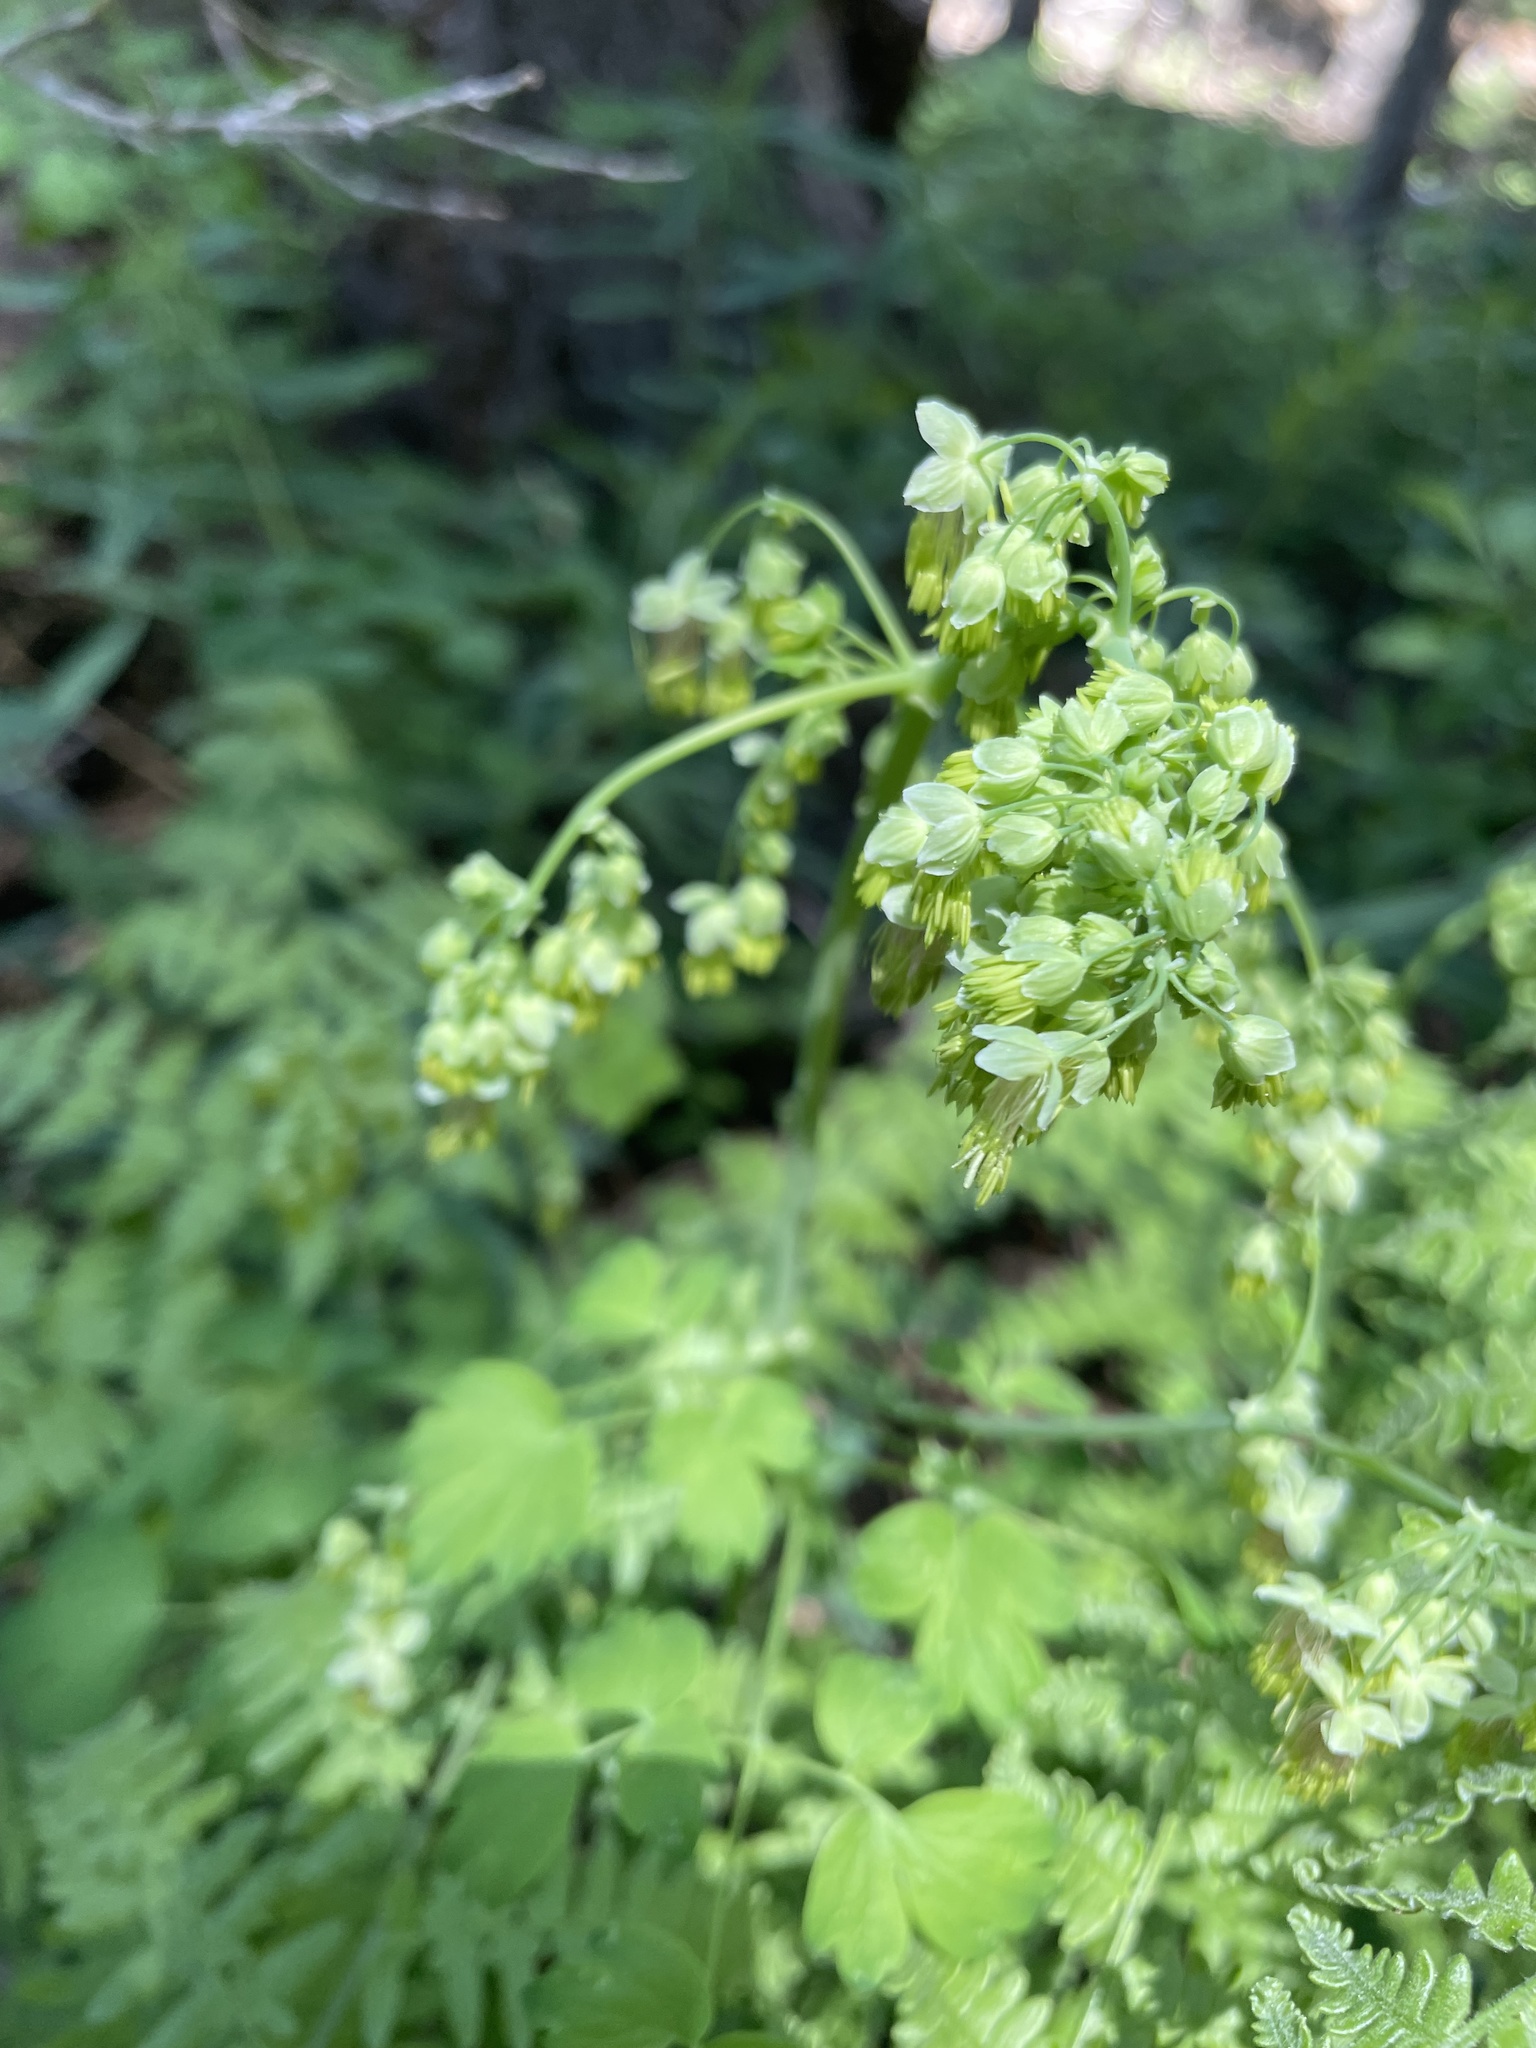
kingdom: Plantae
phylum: Tracheophyta
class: Magnoliopsida
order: Ranunculales
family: Ranunculaceae
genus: Thalictrum
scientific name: Thalictrum fendleri
